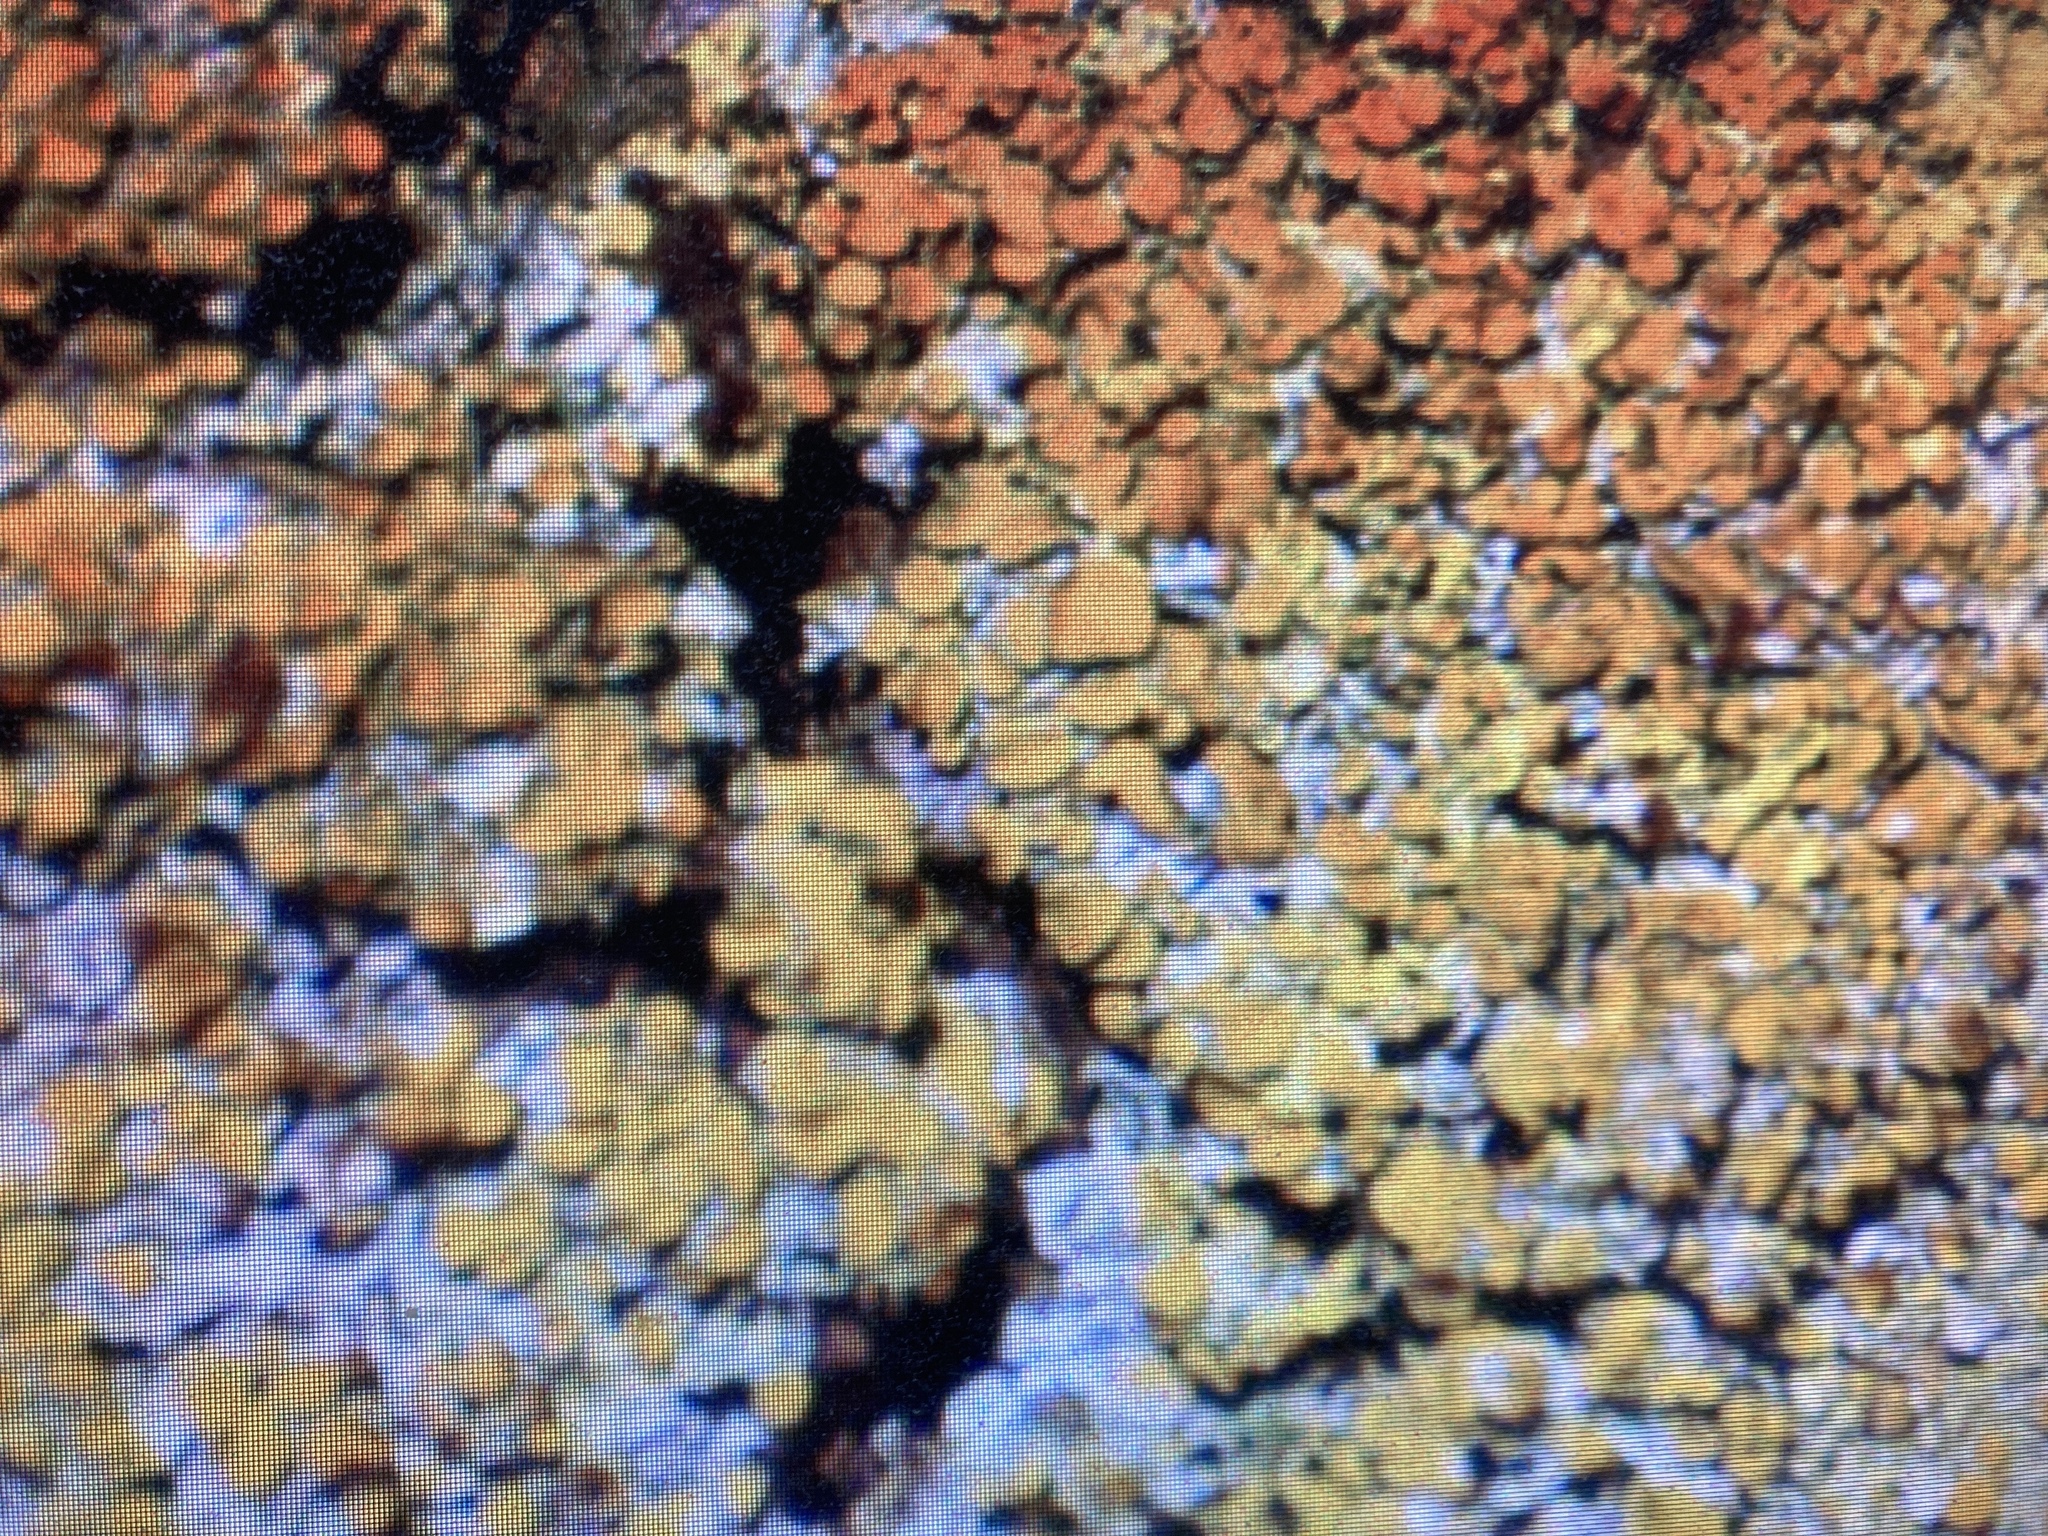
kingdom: Fungi
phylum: Ascomycota
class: Lecanoromycetes
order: Teloschistales
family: Teloschistaceae
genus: Xanthoria
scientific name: Xanthoria parietina
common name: Common orange lichen
